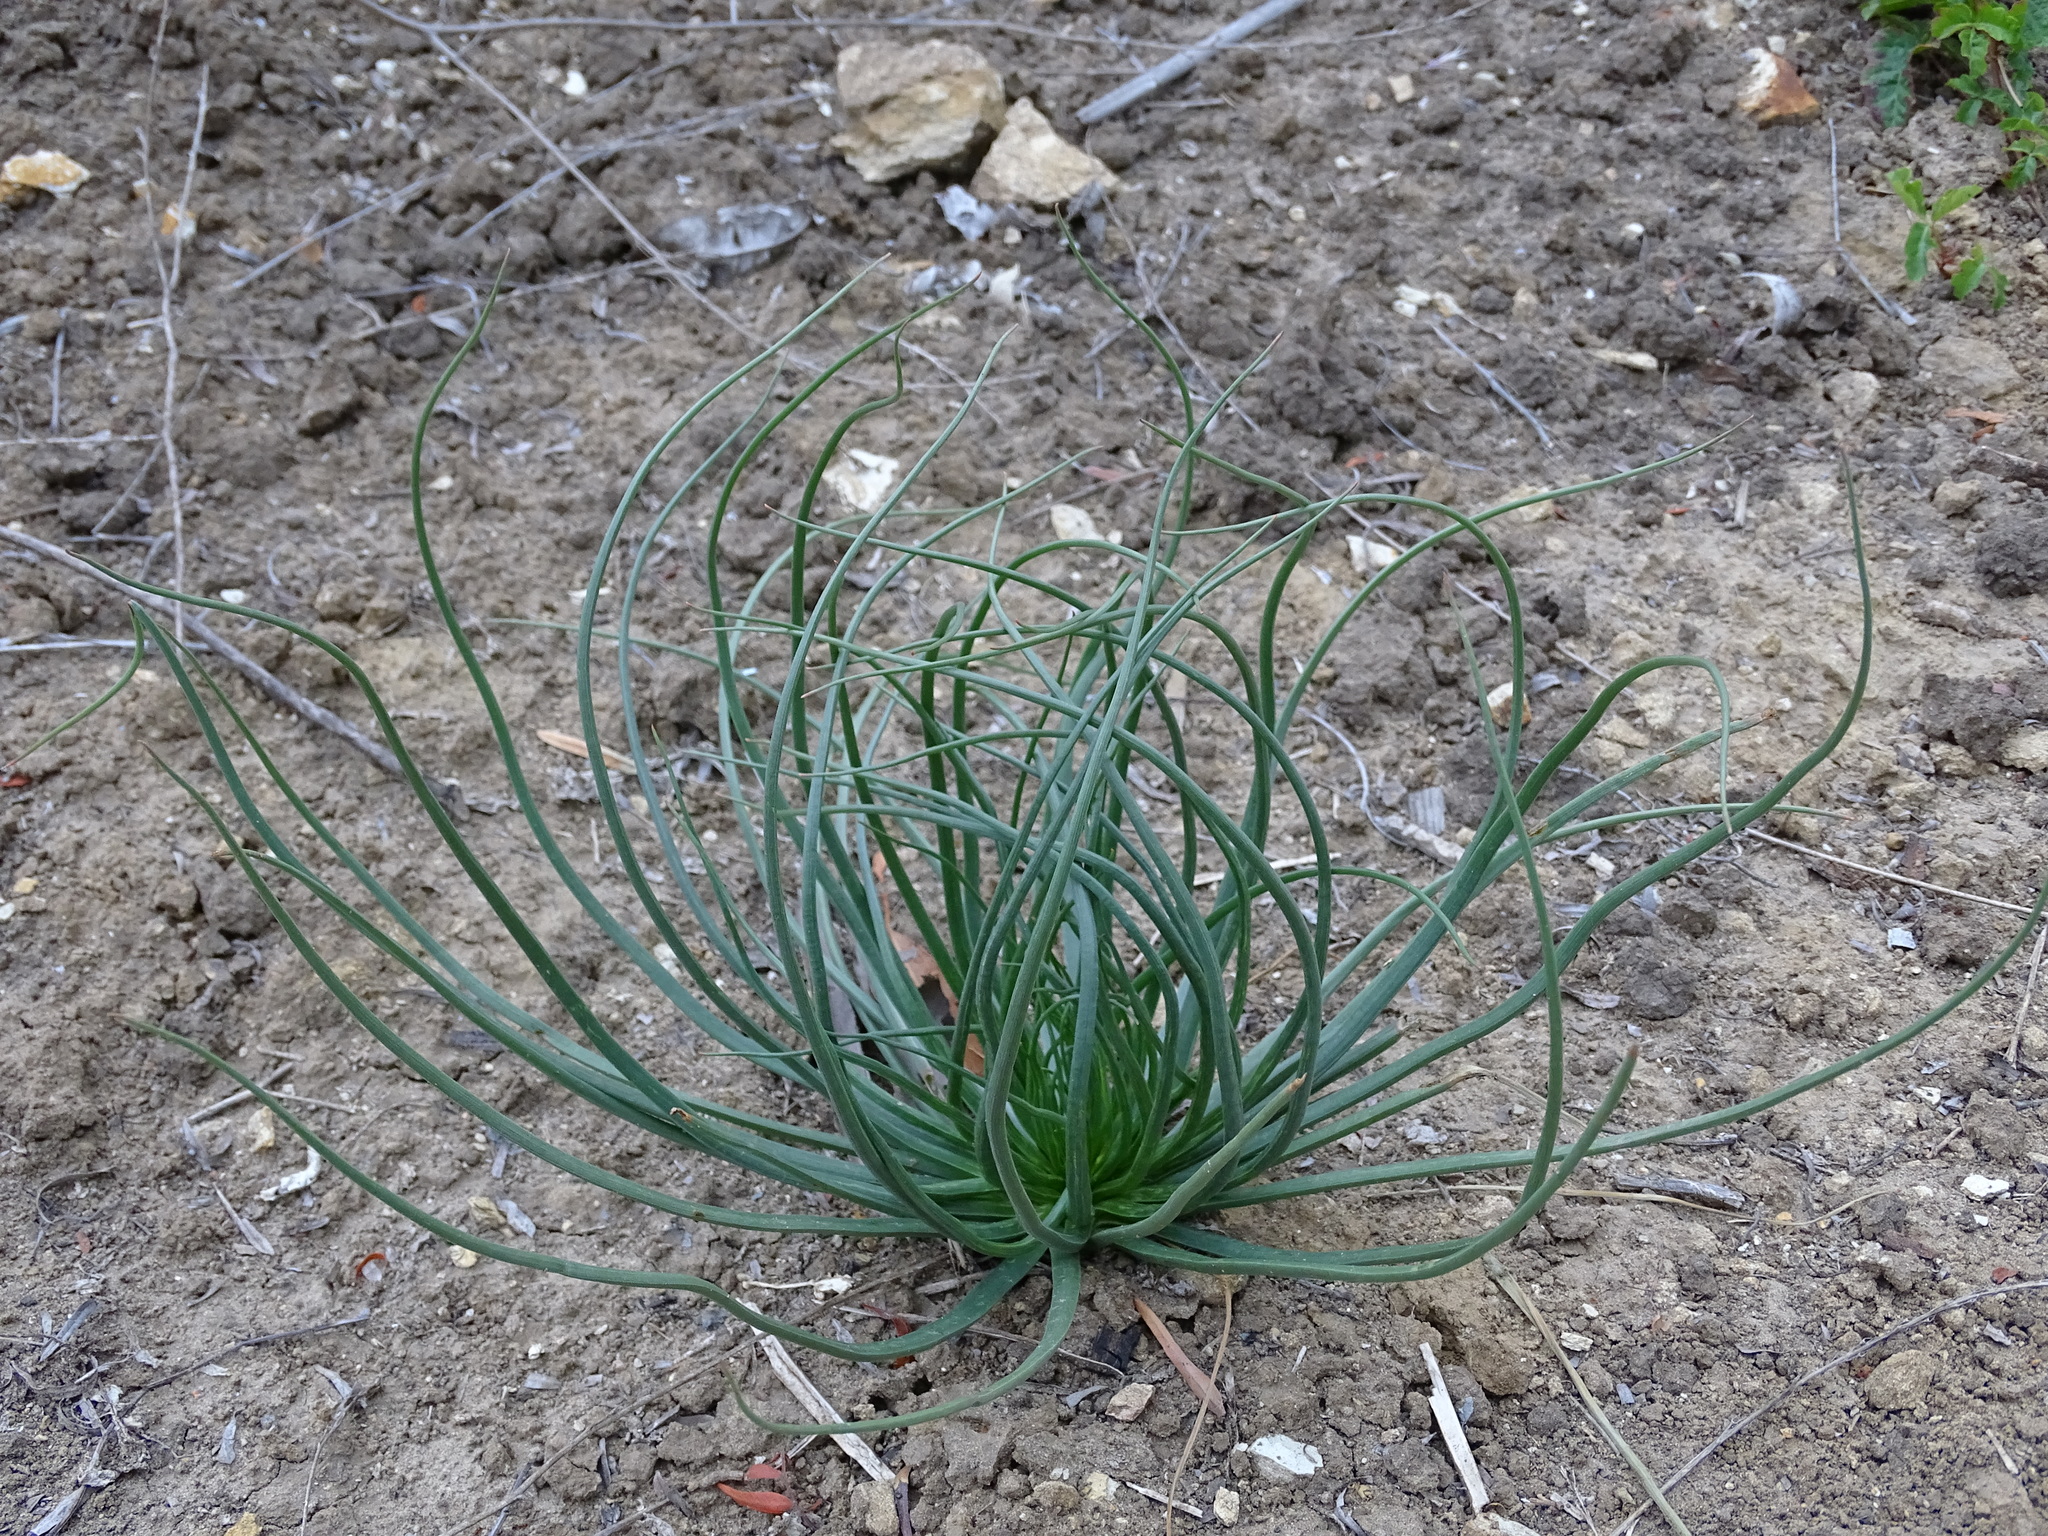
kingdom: Plantae
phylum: Tracheophyta
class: Liliopsida
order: Asparagales
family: Asphodelaceae
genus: Asphodelus
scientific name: Asphodelus fistulosus
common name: Onionweed
